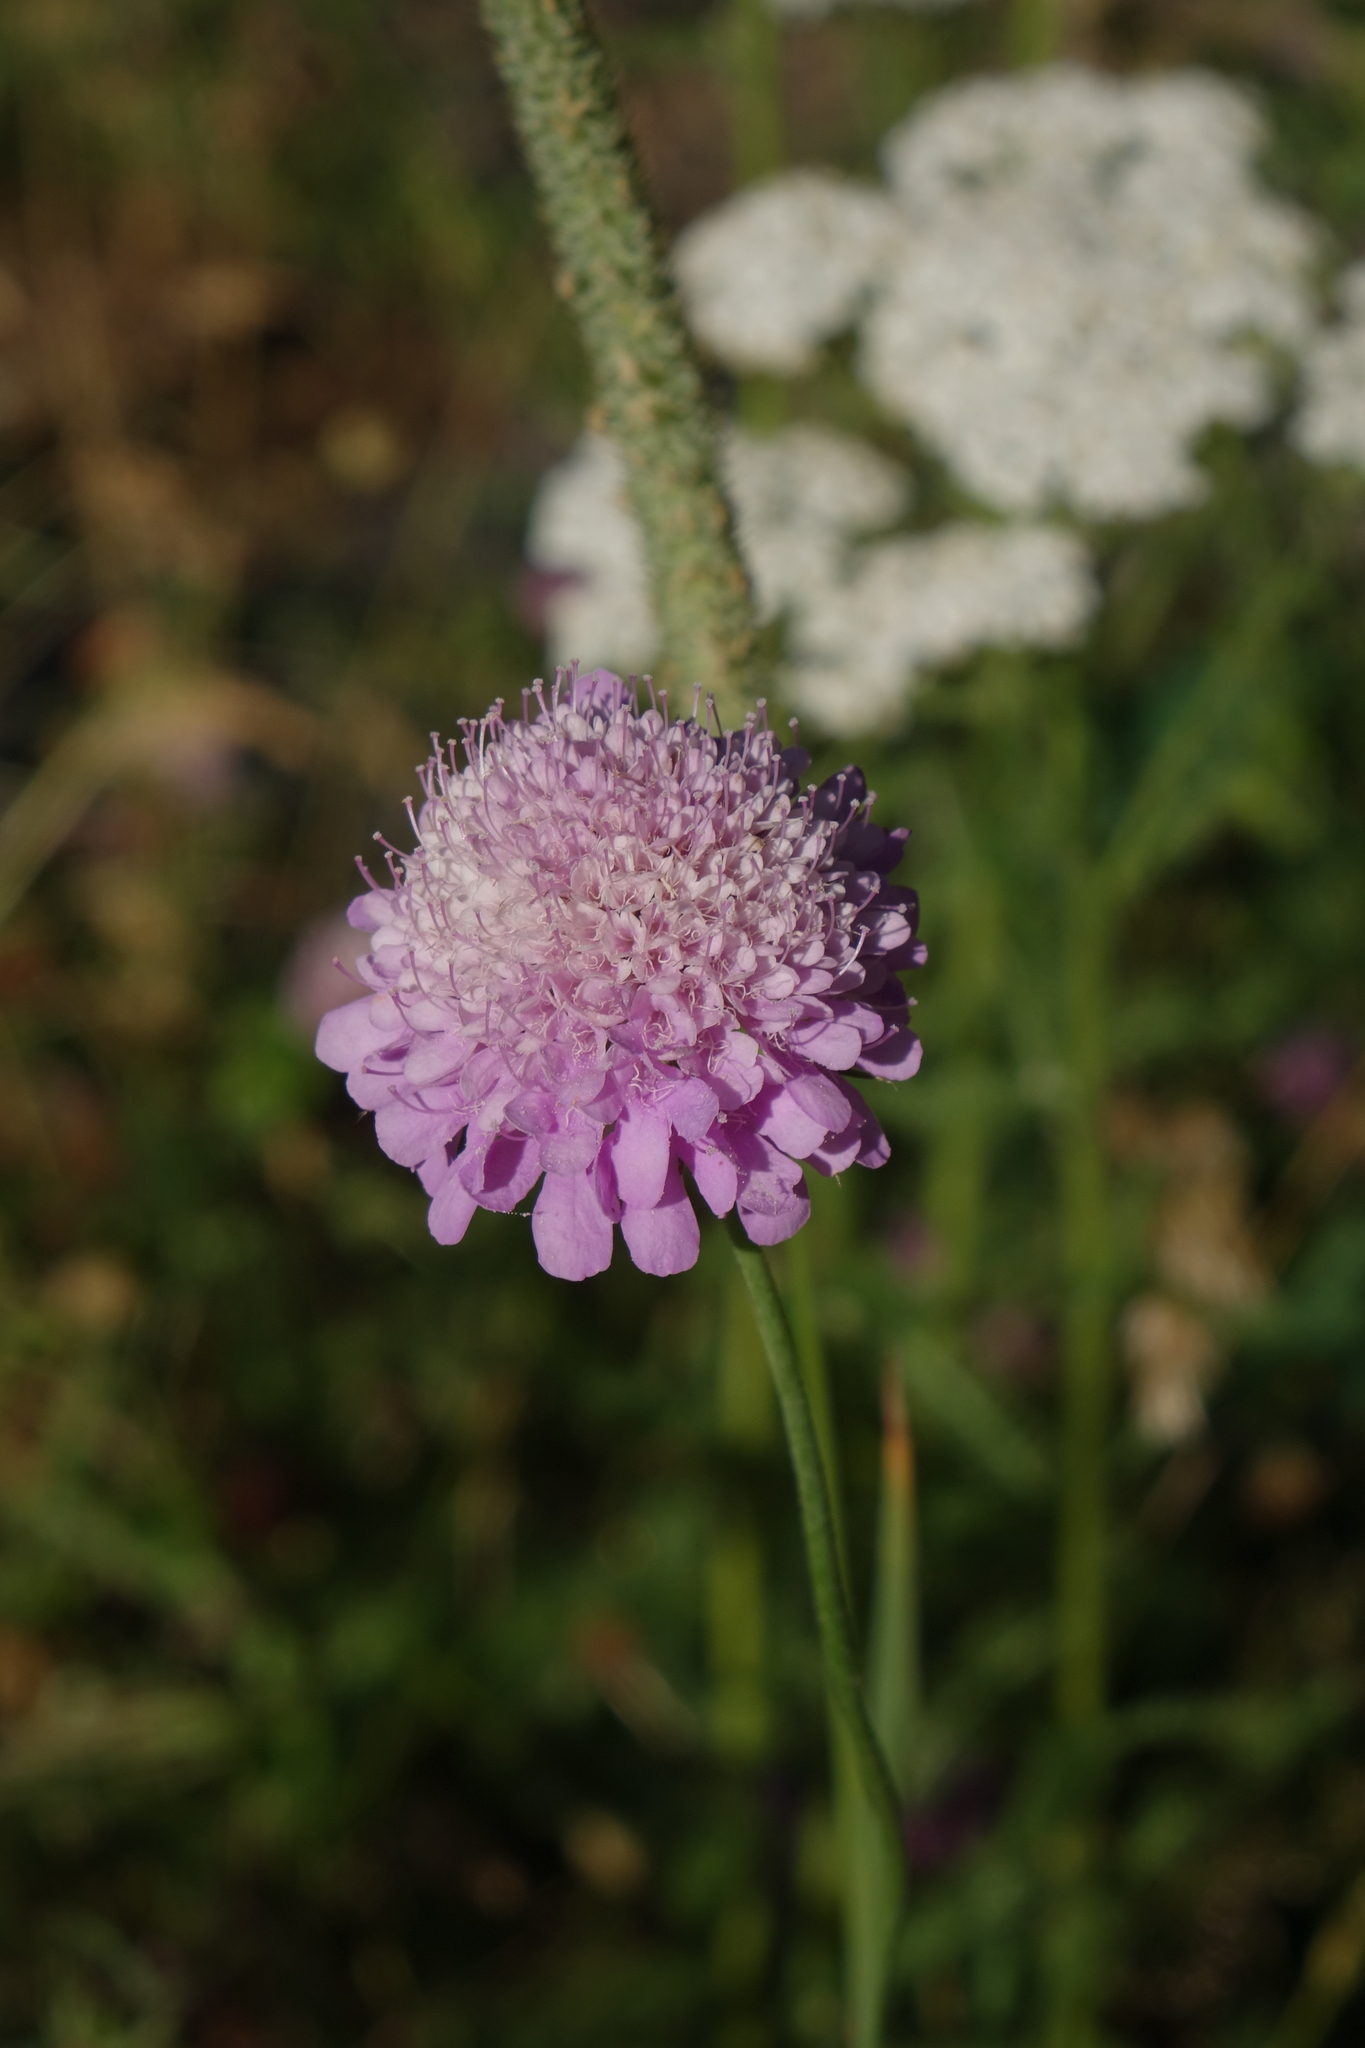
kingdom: Plantae
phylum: Tracheophyta
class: Magnoliopsida
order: Dipsacales
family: Caprifoliaceae
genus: Scabiosa
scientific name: Scabiosa owerinii
